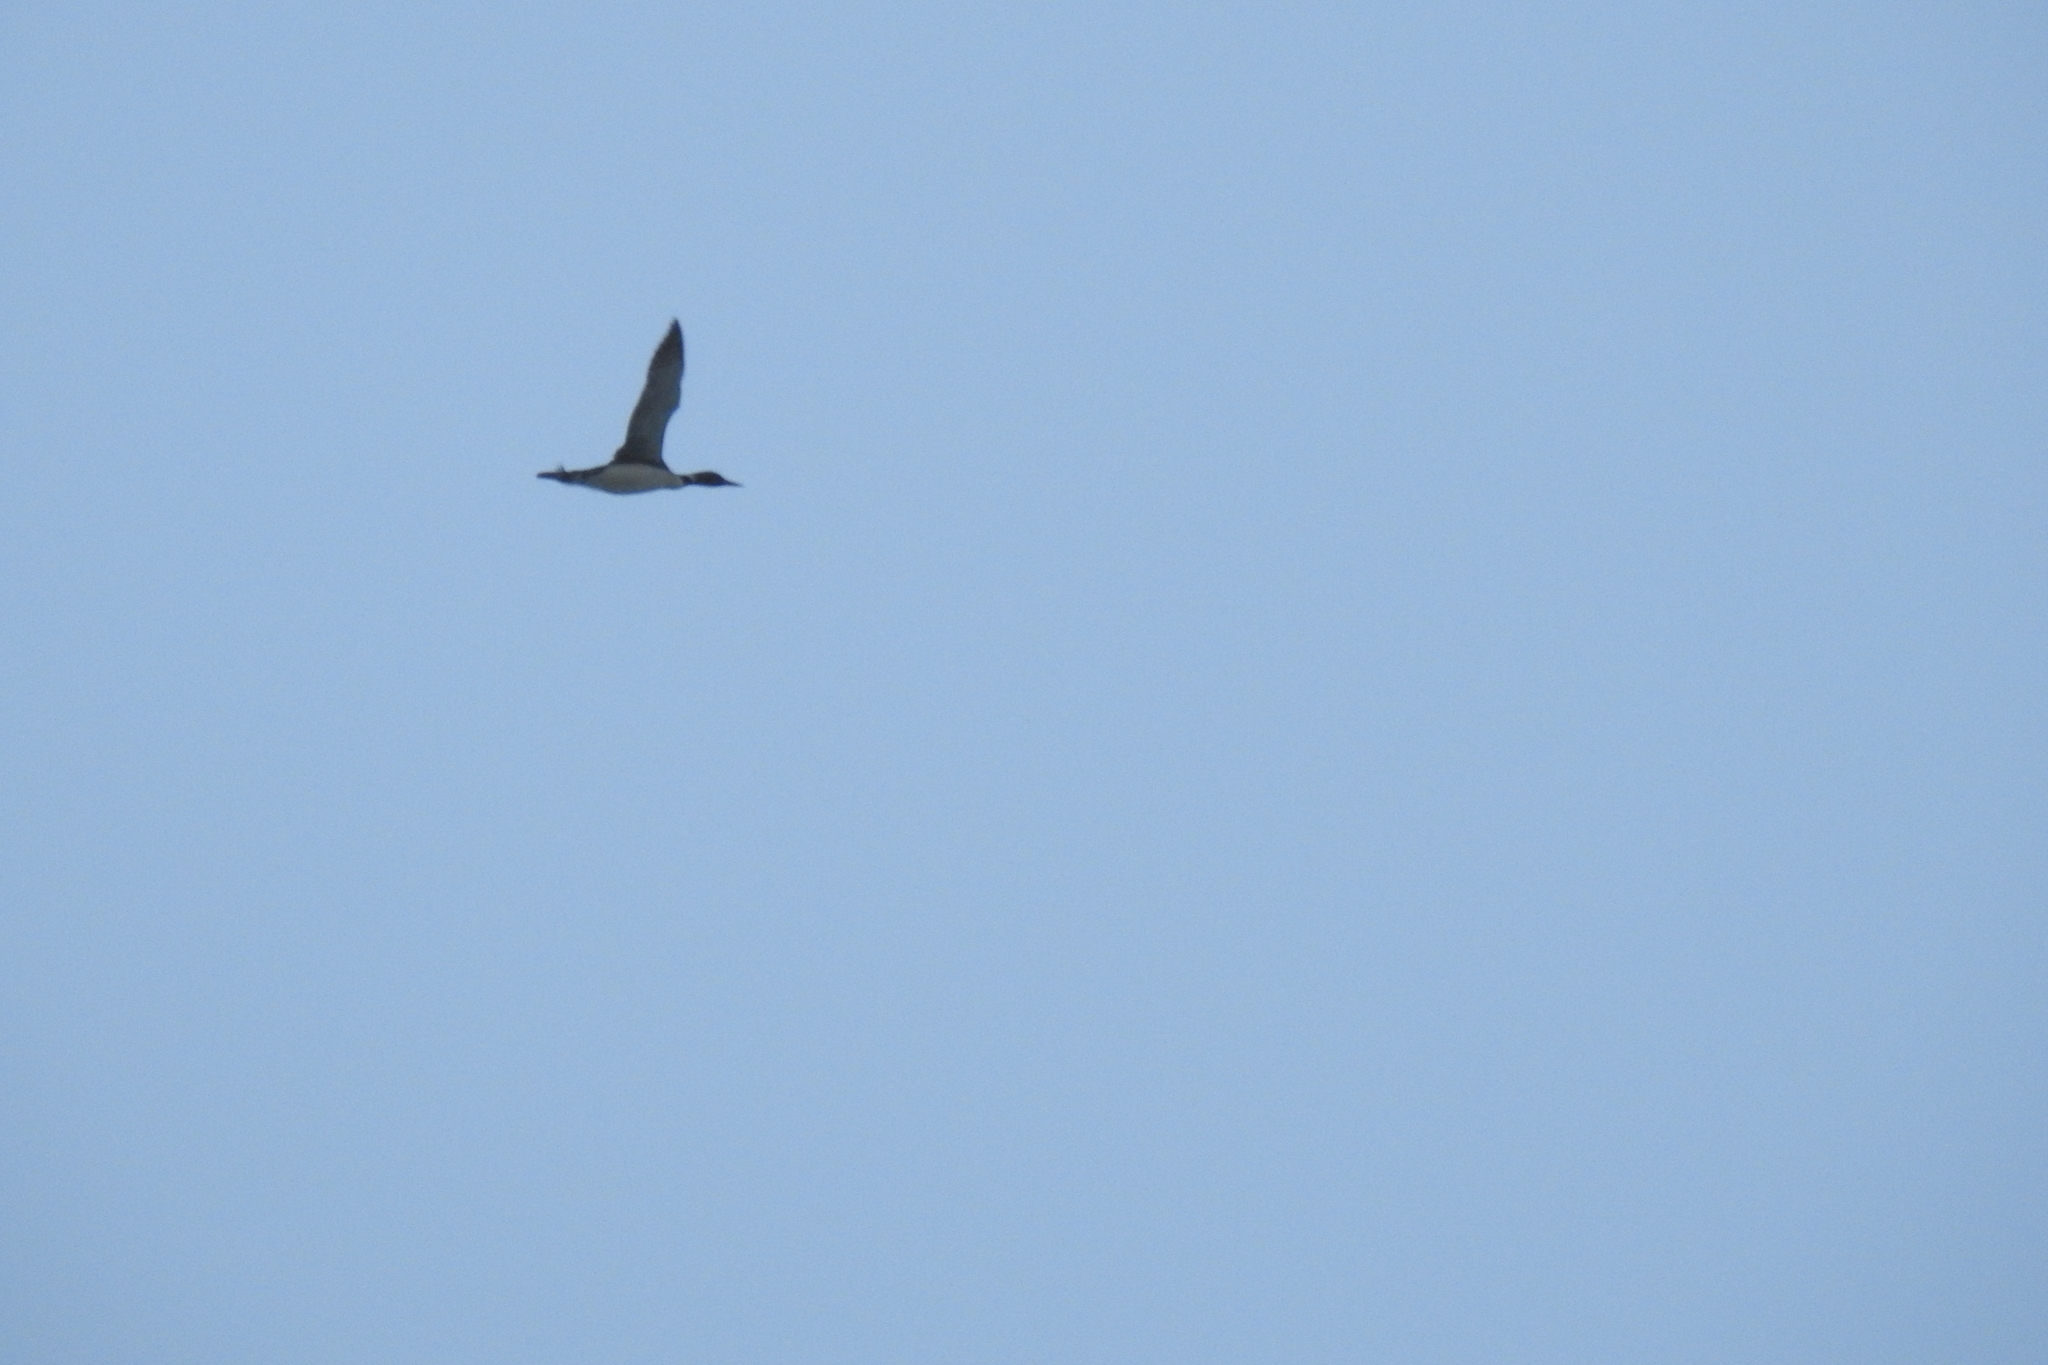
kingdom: Animalia
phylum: Chordata
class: Aves
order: Gaviiformes
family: Gaviidae
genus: Gavia
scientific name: Gavia immer
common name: Common loon
